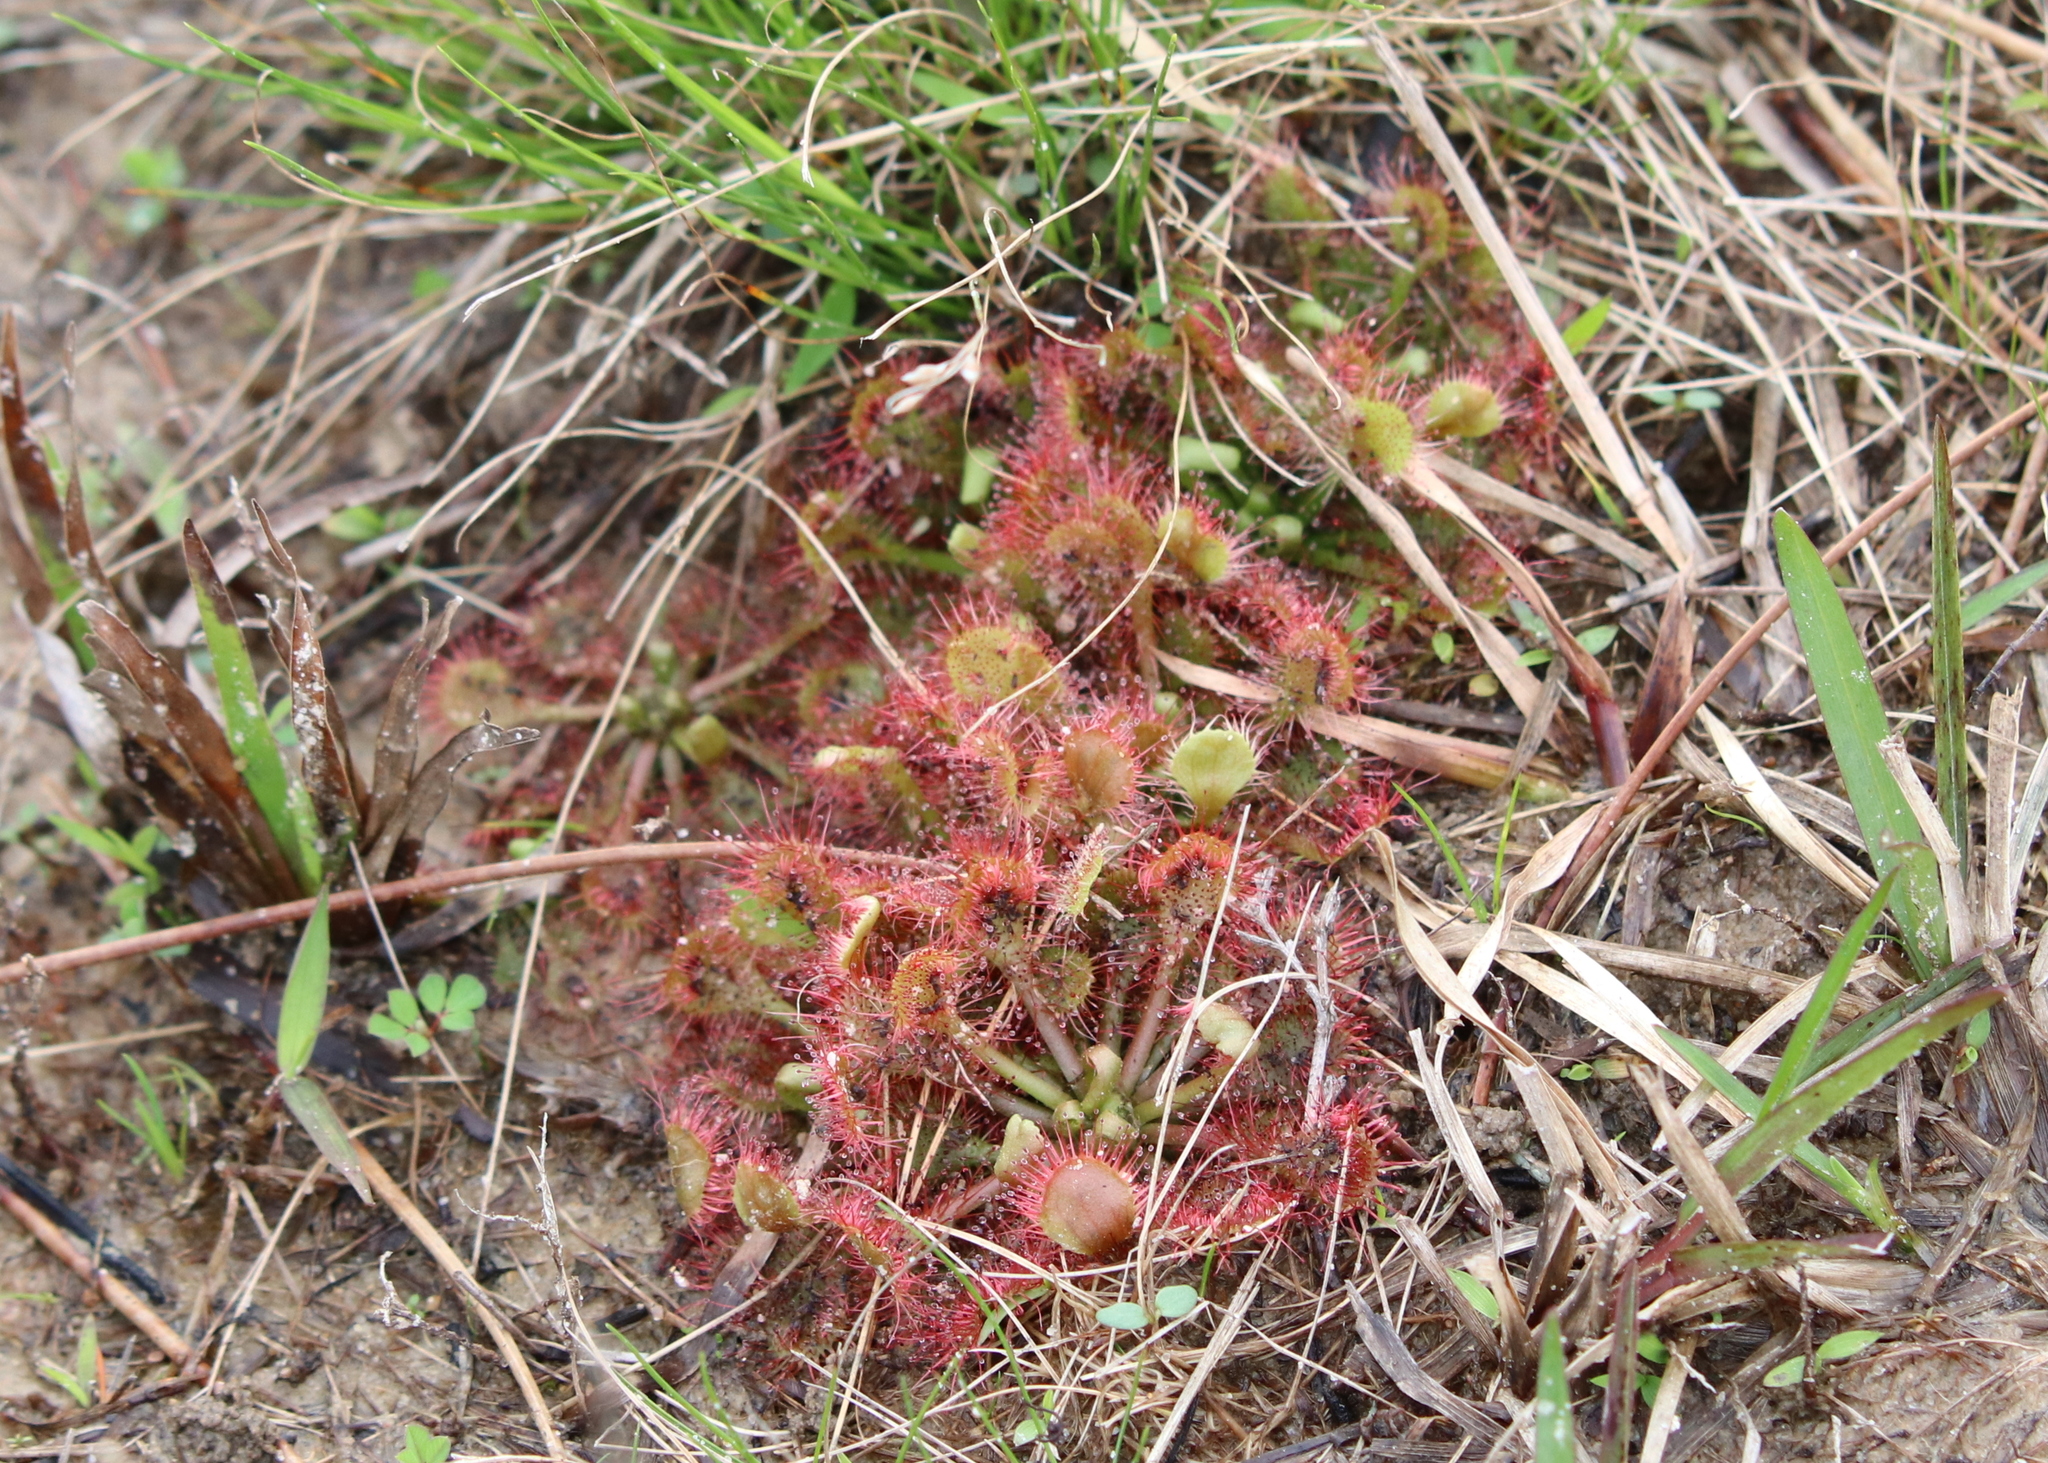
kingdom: Plantae
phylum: Tracheophyta
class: Magnoliopsida
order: Caryophyllales
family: Droseraceae
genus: Drosera
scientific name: Drosera capillaris
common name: Pink sundew
